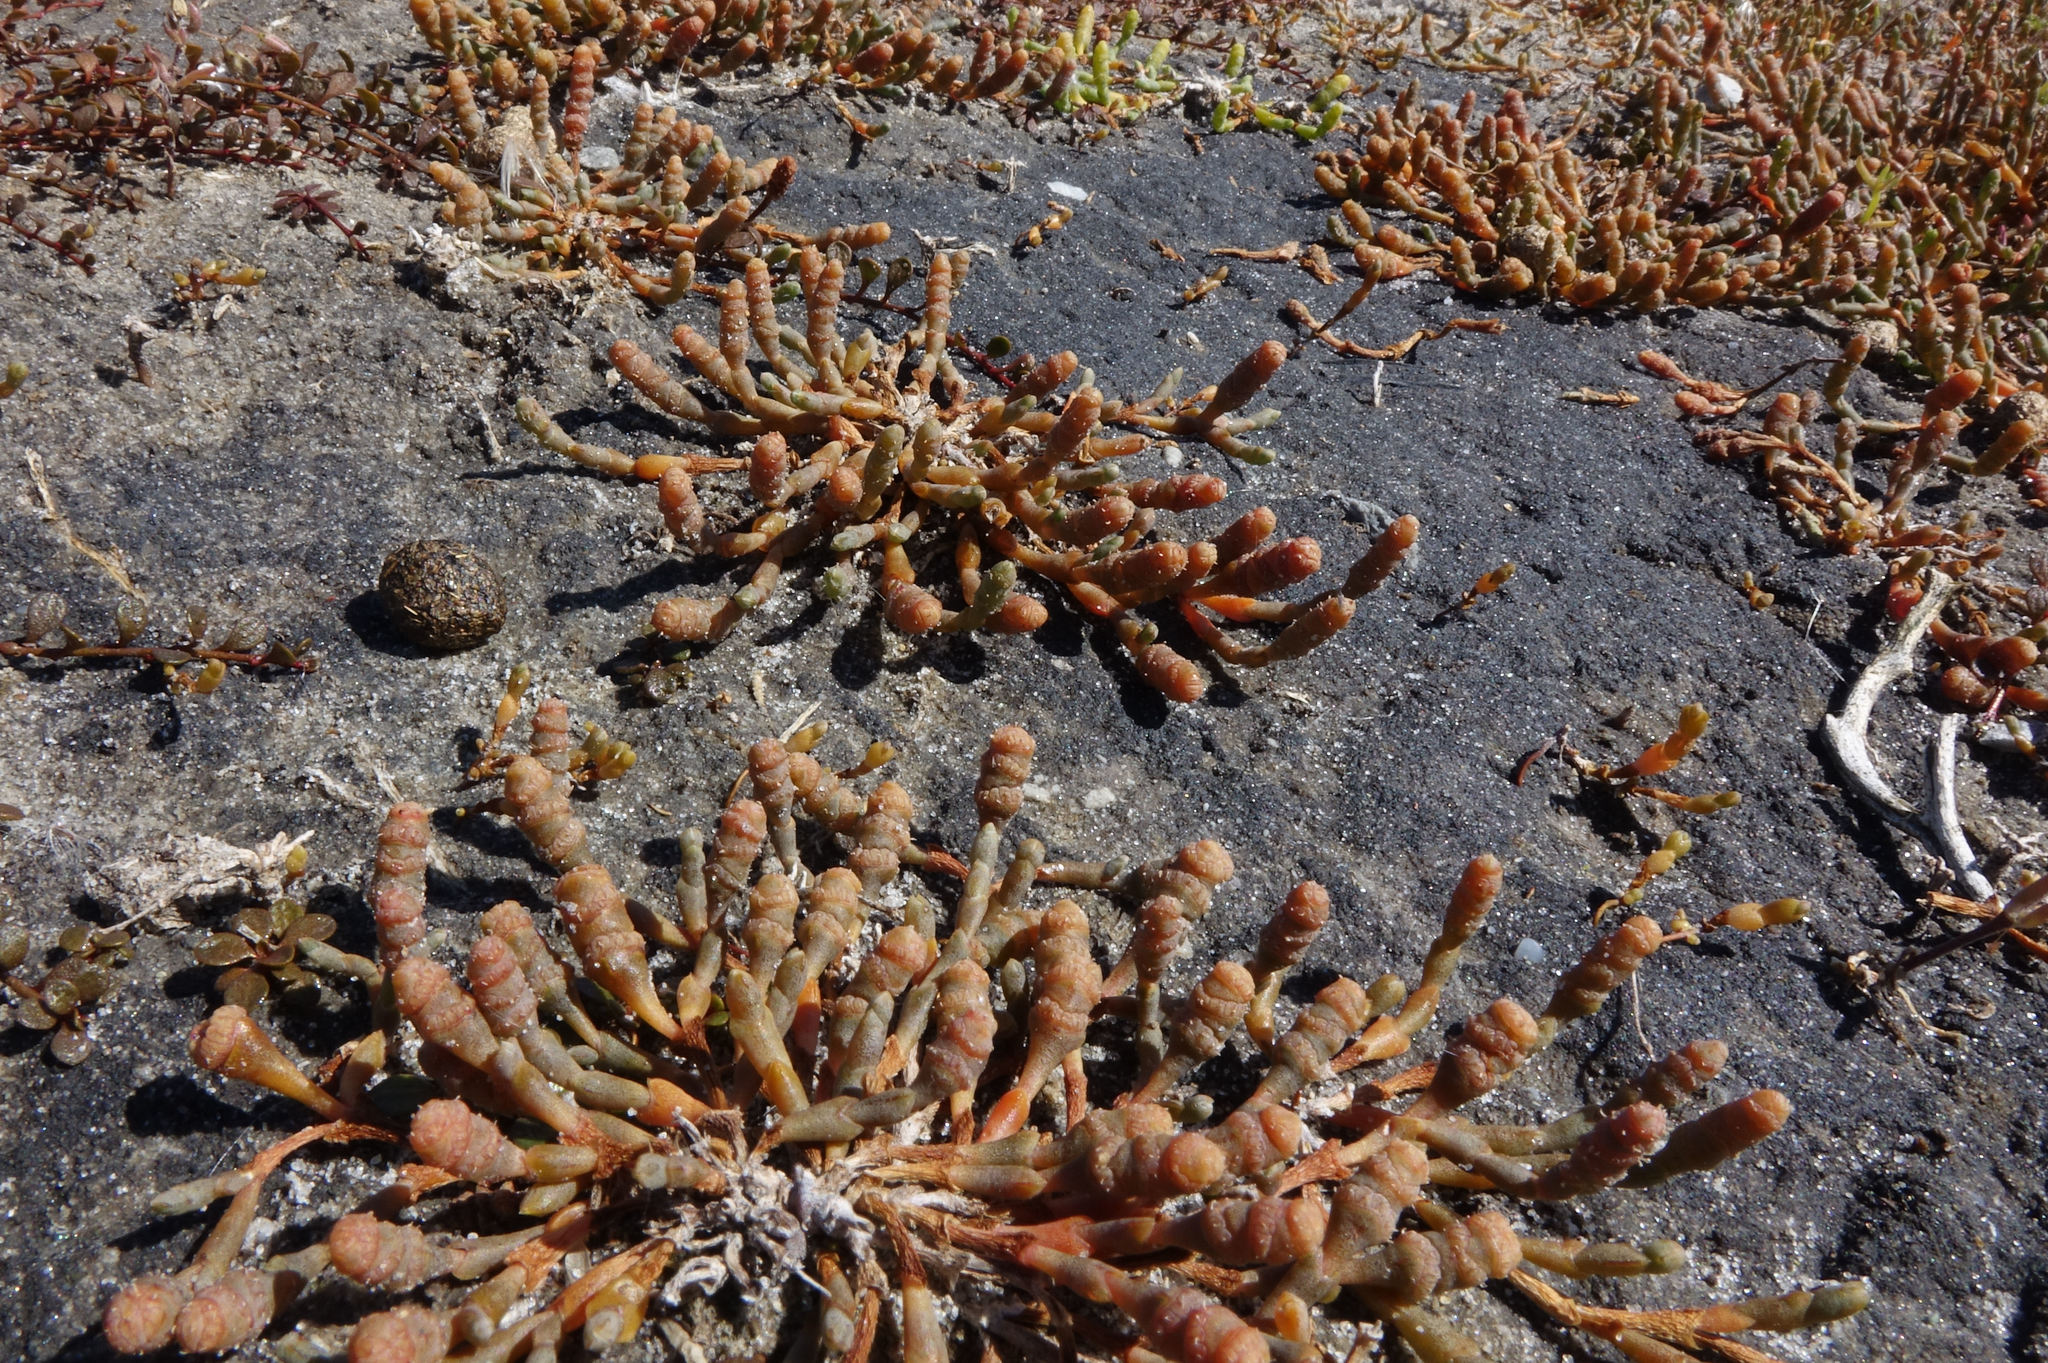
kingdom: Plantae
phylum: Tracheophyta
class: Magnoliopsida
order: Caryophyllales
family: Amaranthaceae
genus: Salicornia
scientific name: Salicornia quinqueflora
